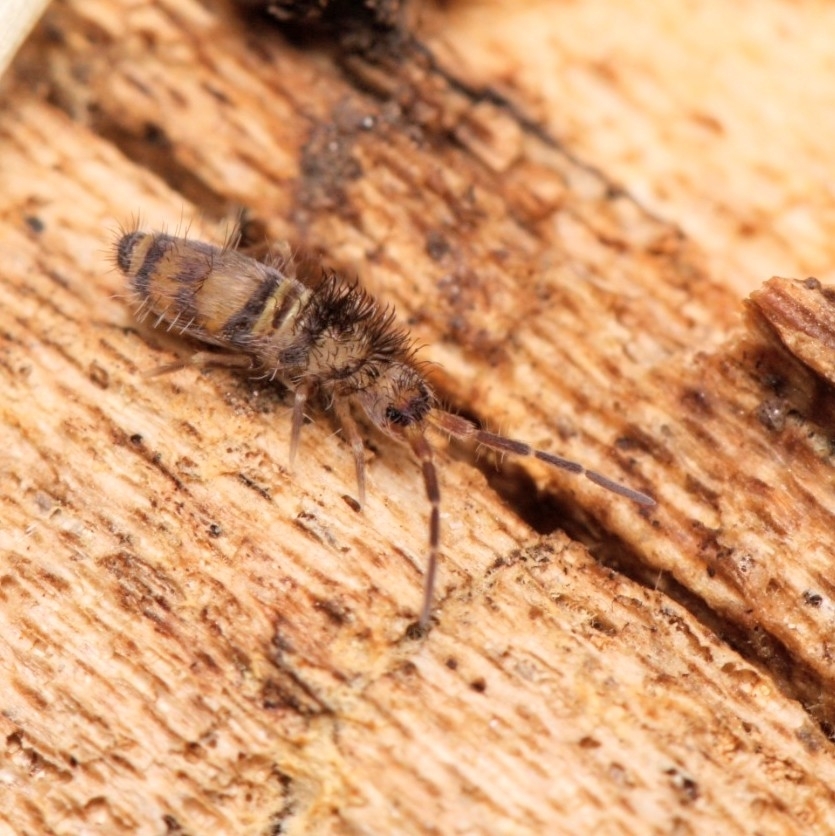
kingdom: Animalia
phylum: Arthropoda
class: Collembola
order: Entomobryomorpha
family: Entomobryidae
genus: Homidia
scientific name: Homidia sauteri
